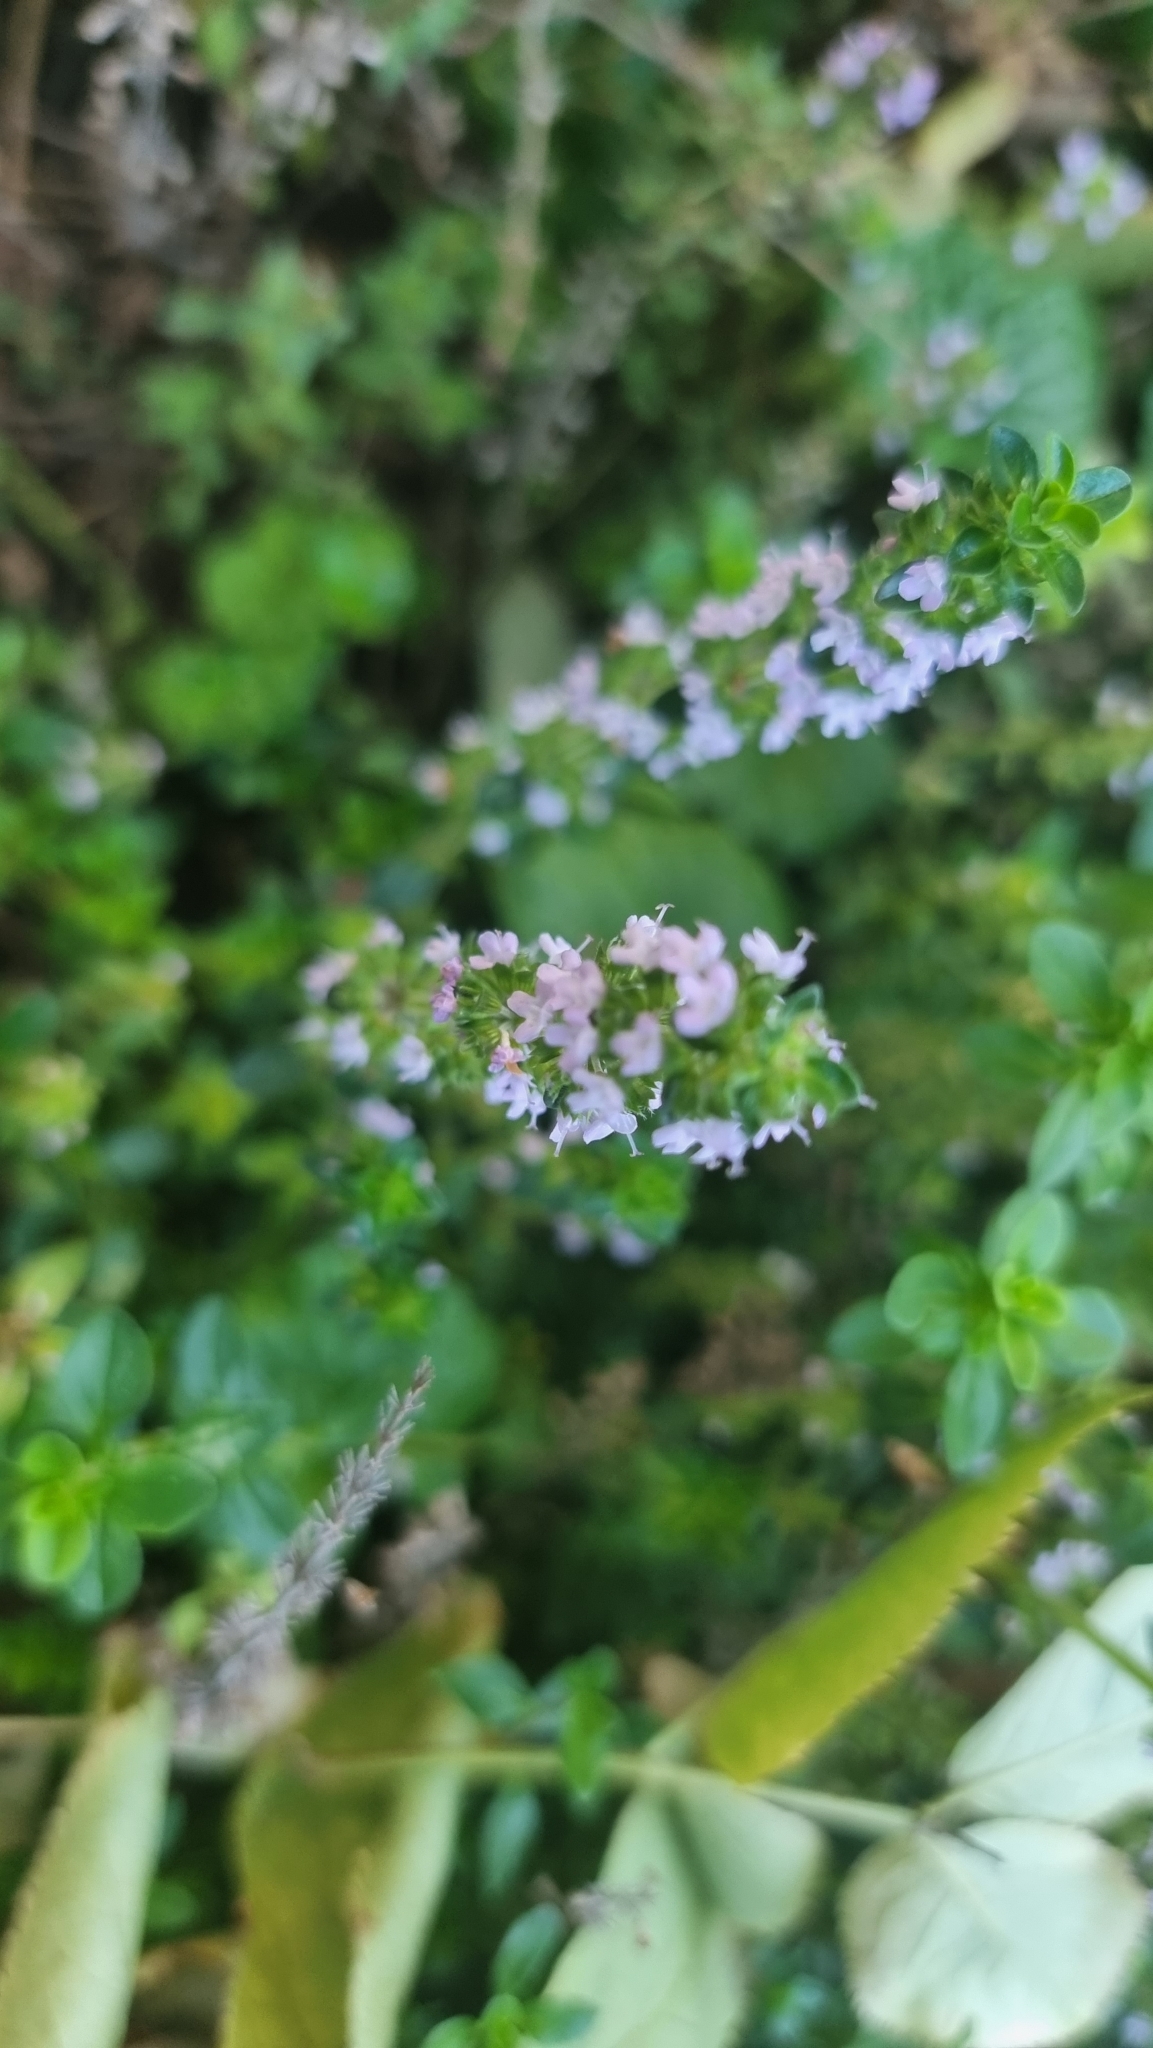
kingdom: Plantae
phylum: Tracheophyta
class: Magnoliopsida
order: Lamiales
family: Lamiaceae
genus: Thymus
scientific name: Thymus citriodorus
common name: Lemon thyme
